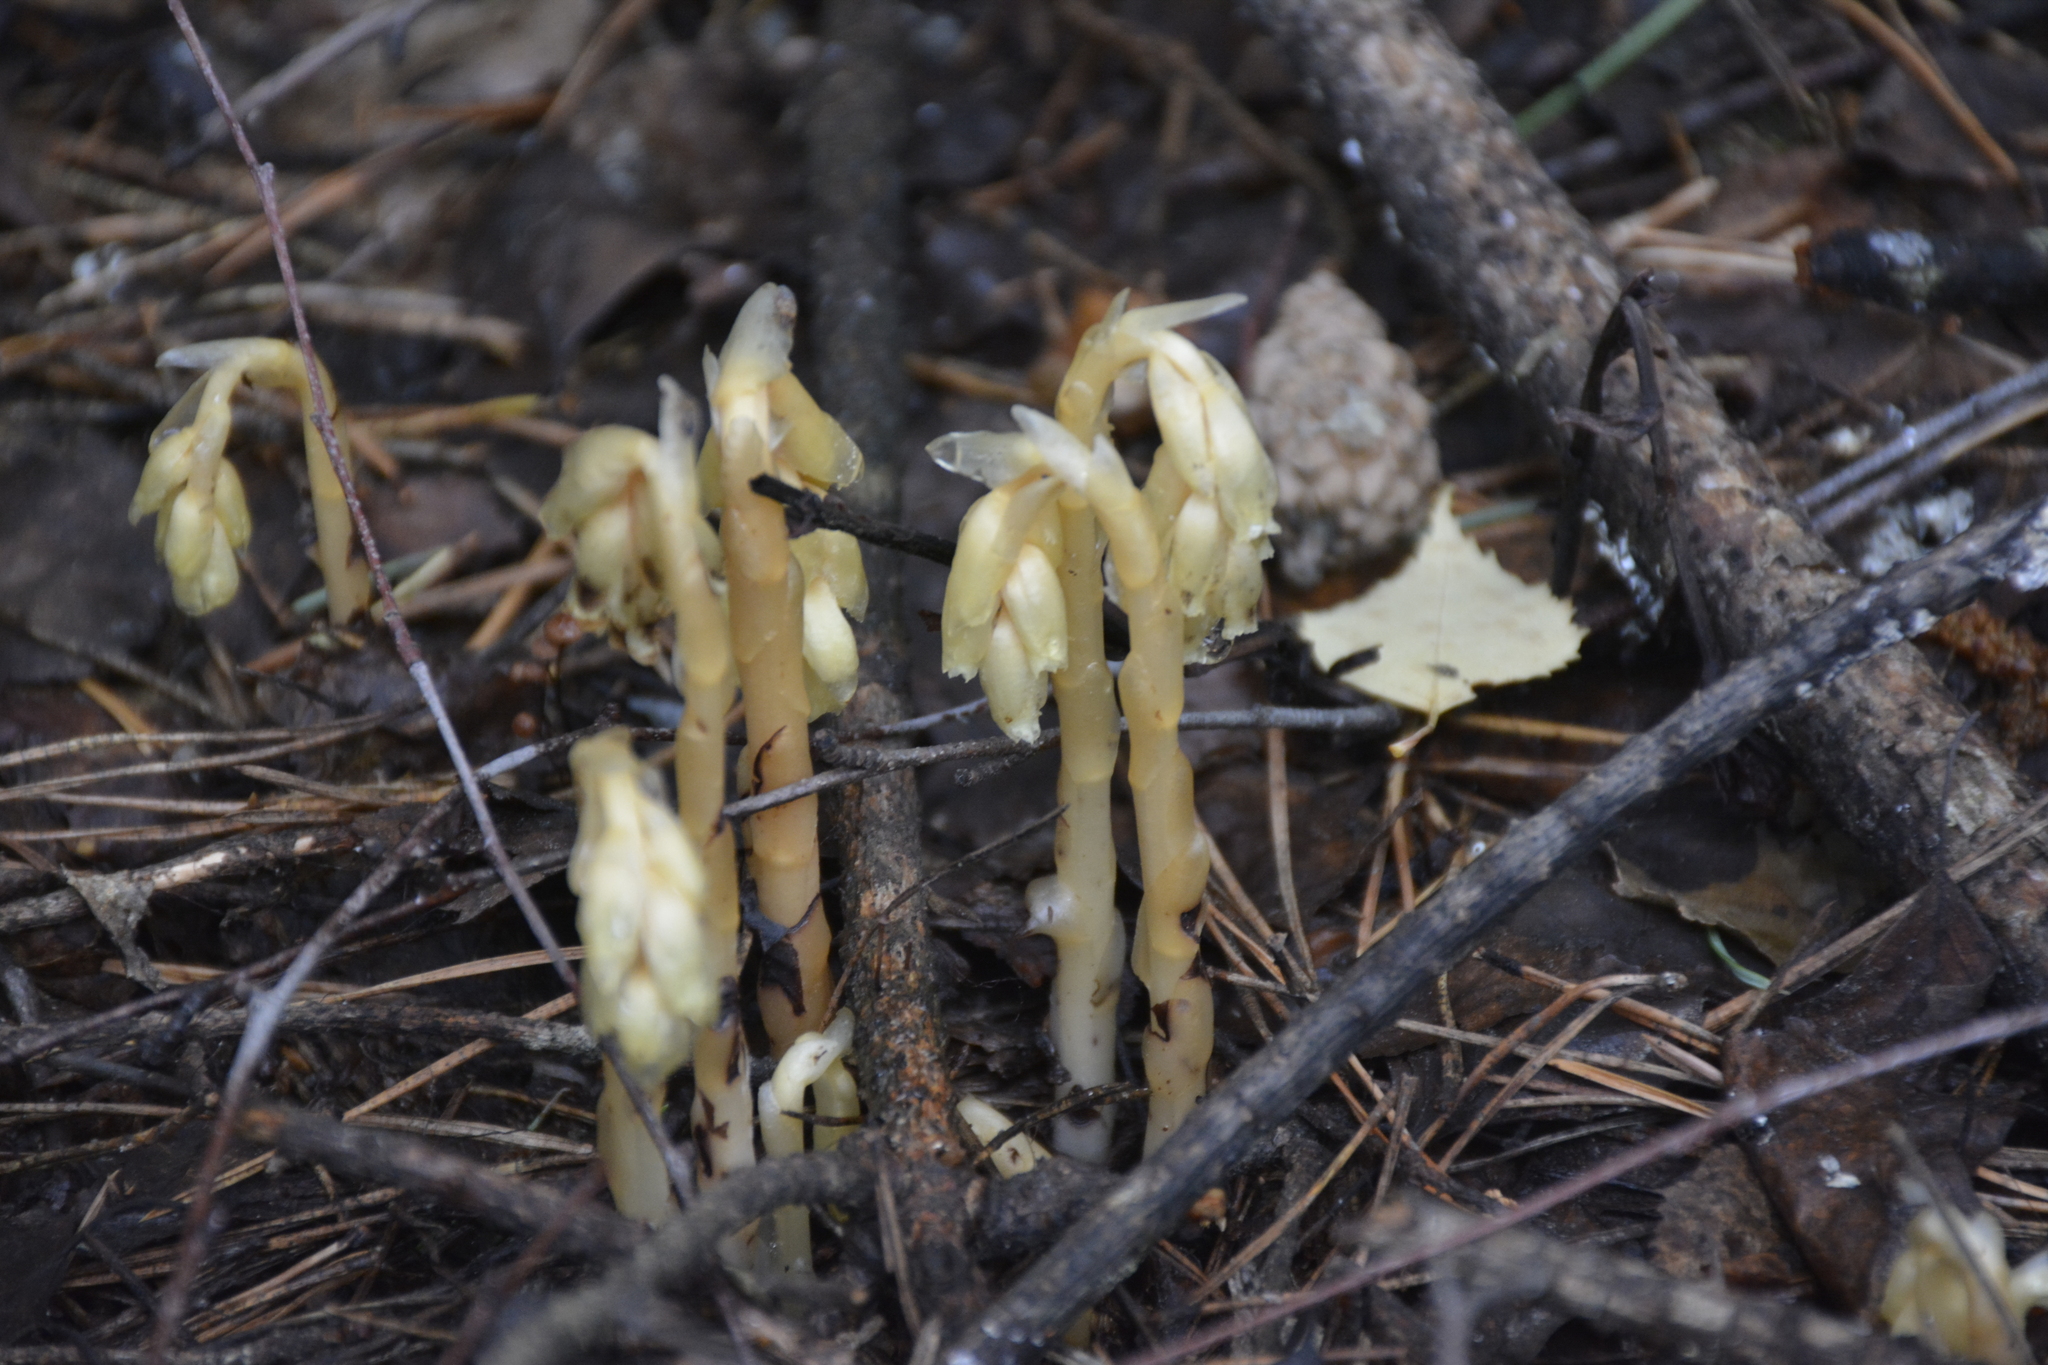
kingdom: Plantae
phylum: Tracheophyta
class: Magnoliopsida
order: Ericales
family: Ericaceae
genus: Hypopitys
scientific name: Hypopitys monotropa
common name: Yellow bird's-nest
